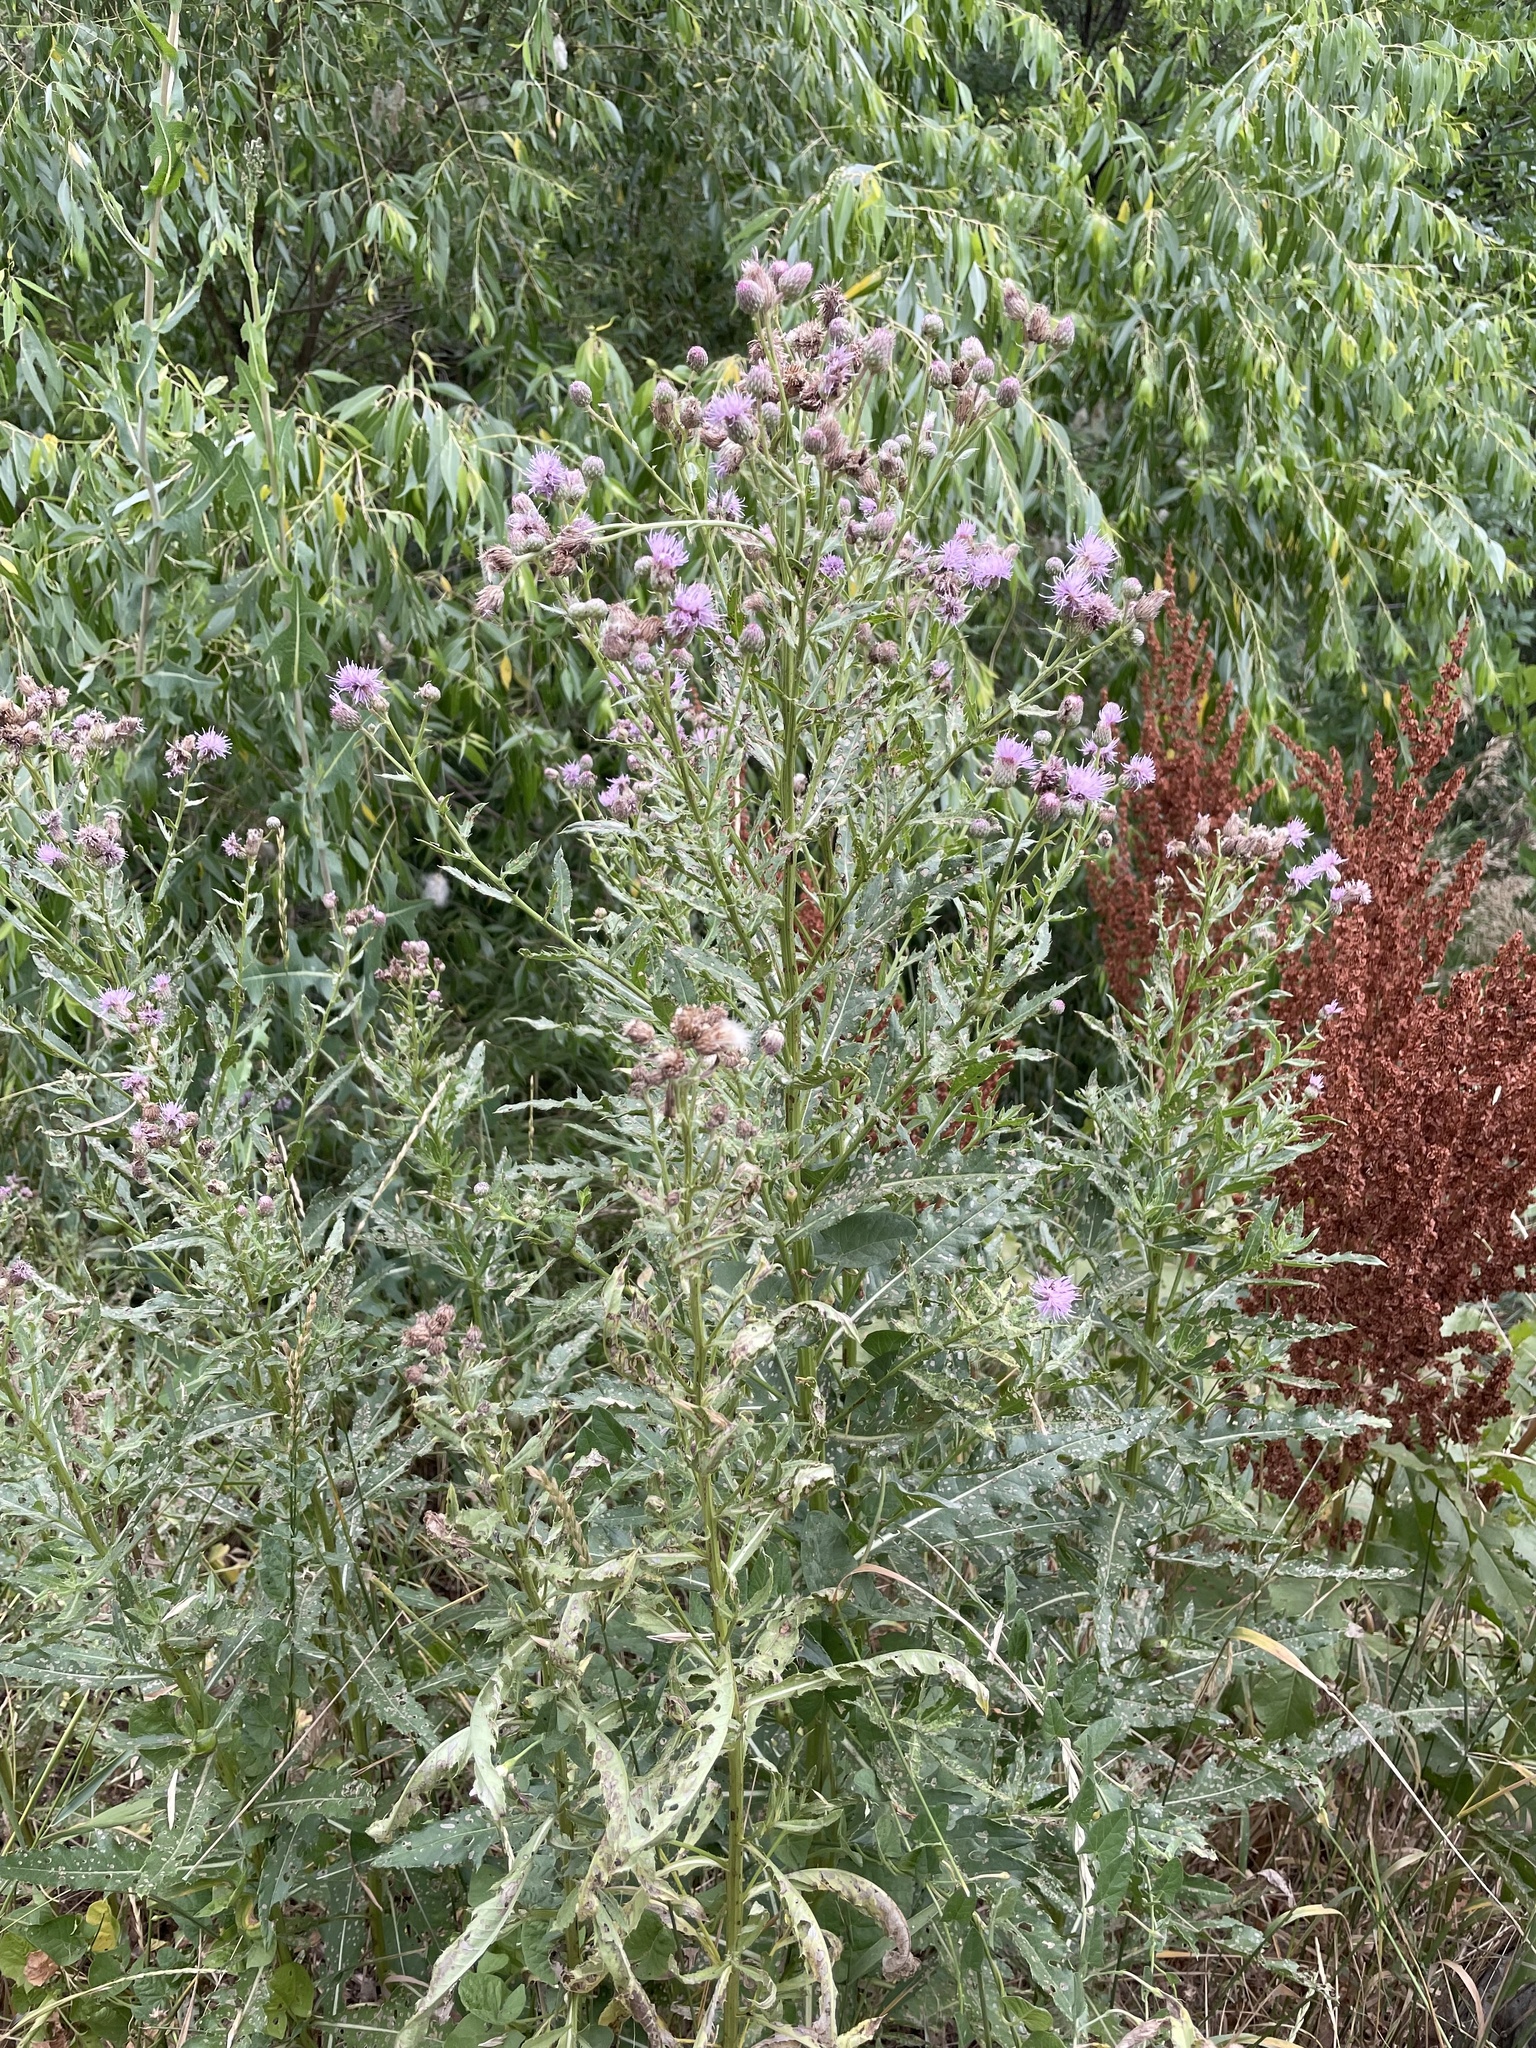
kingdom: Plantae
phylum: Tracheophyta
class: Magnoliopsida
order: Asterales
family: Asteraceae
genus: Cirsium
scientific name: Cirsium arvense
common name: Creeping thistle
